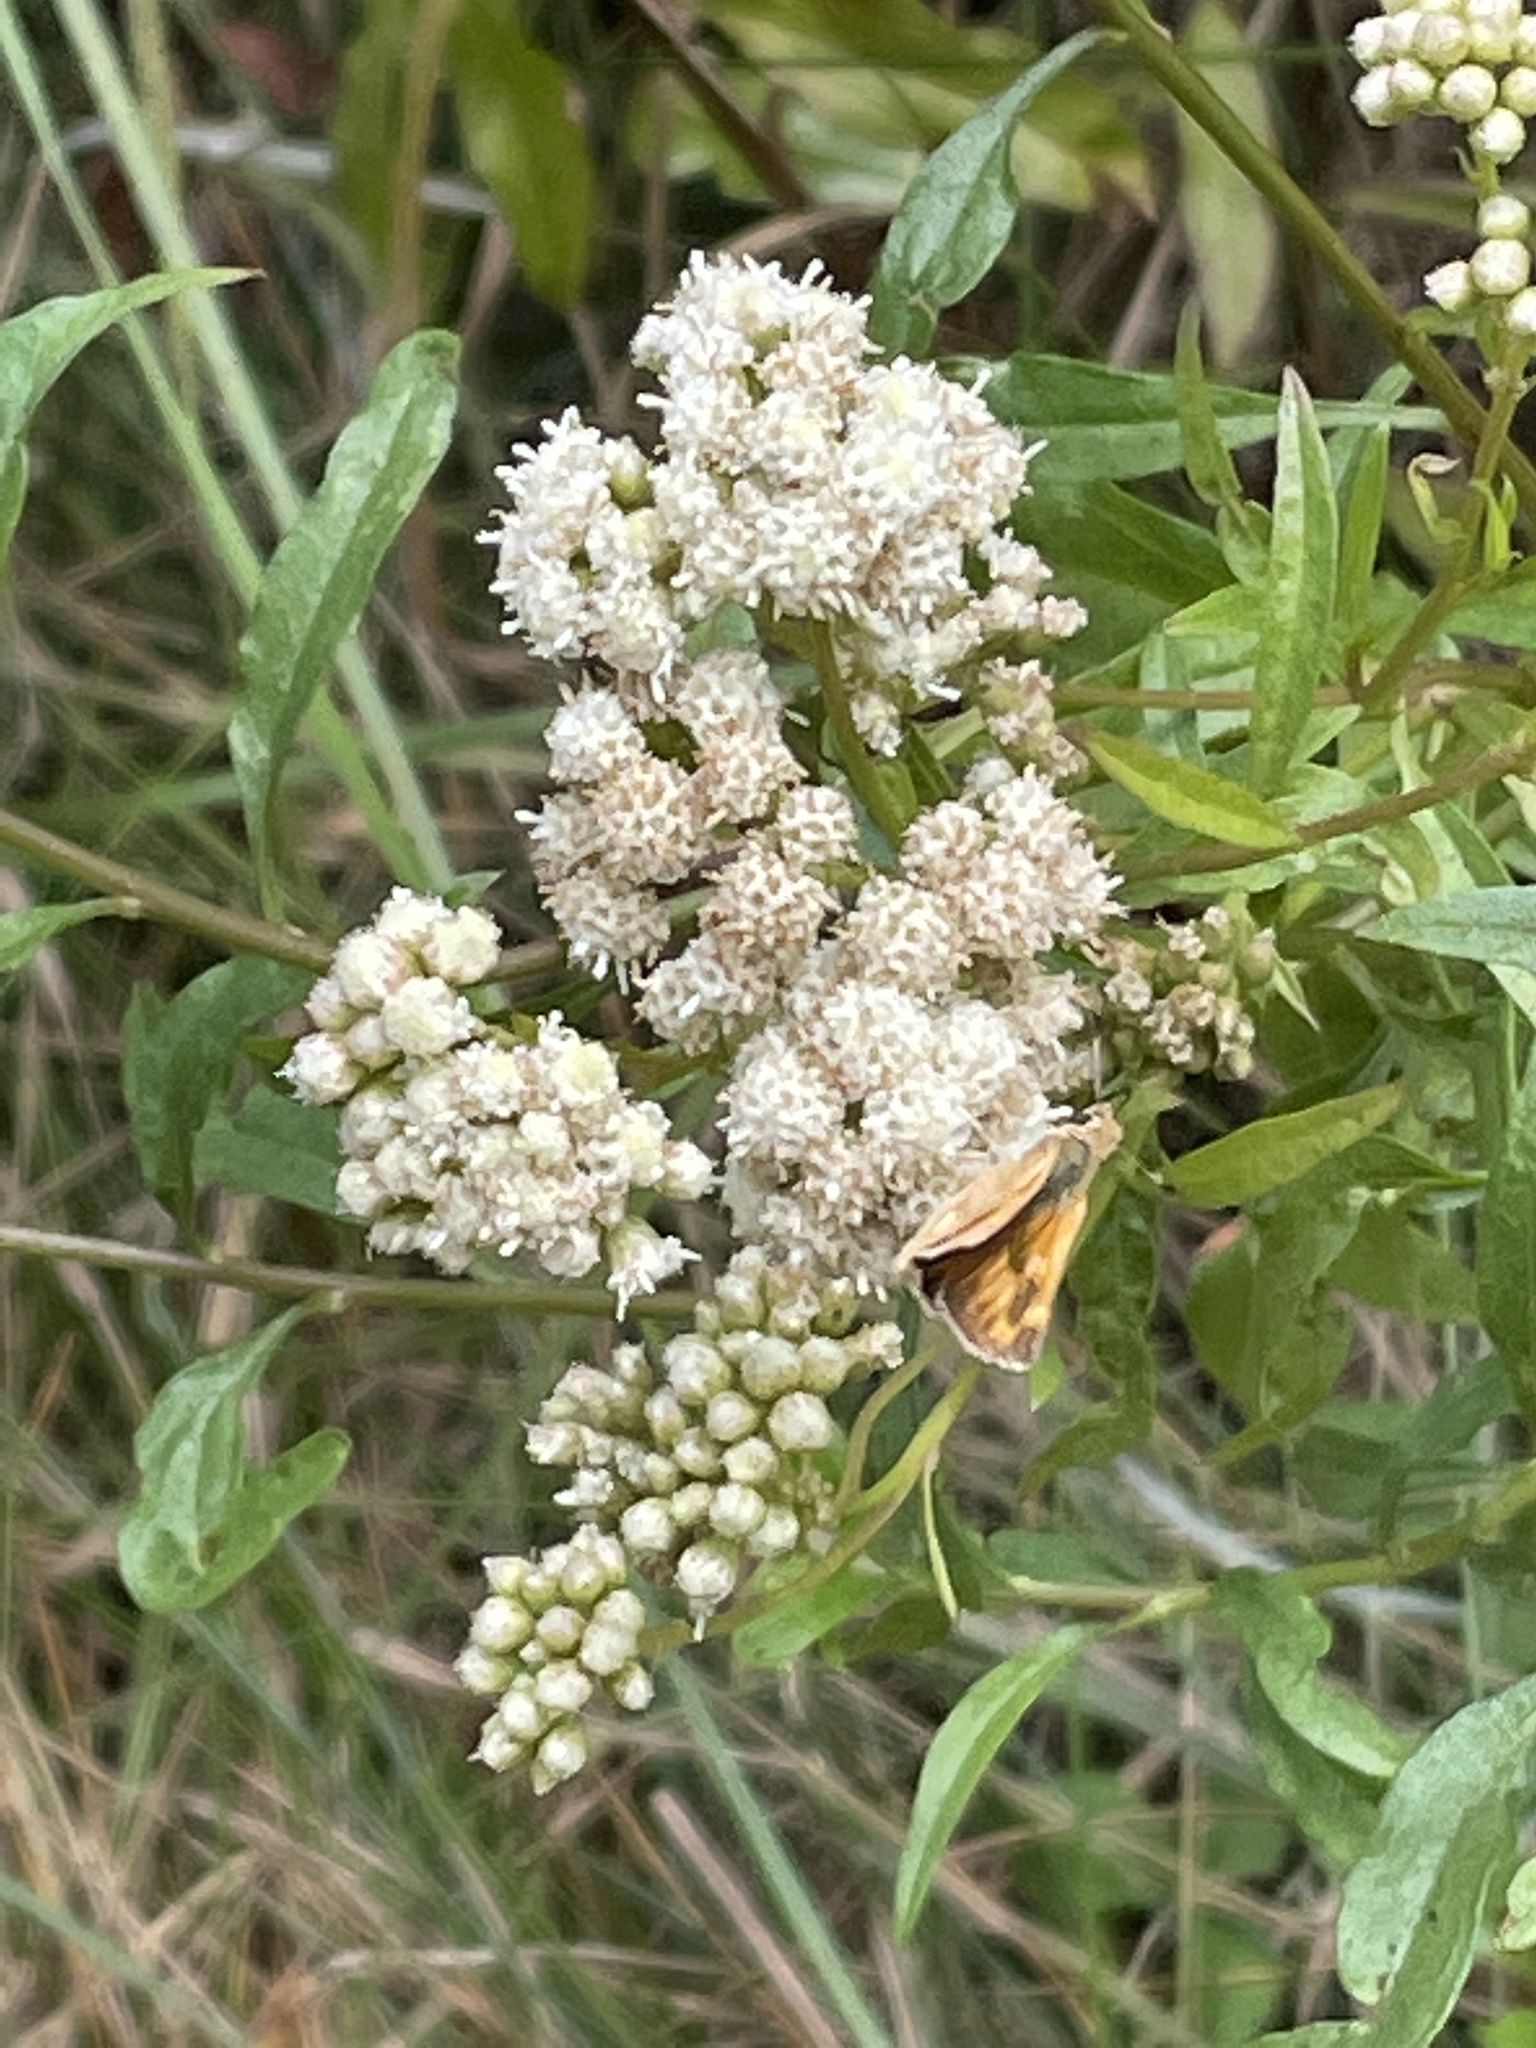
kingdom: Animalia
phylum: Arthropoda
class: Insecta
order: Lepidoptera
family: Hesperiidae
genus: Hylephila
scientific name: Hylephila phyleus
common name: Fiery skipper
